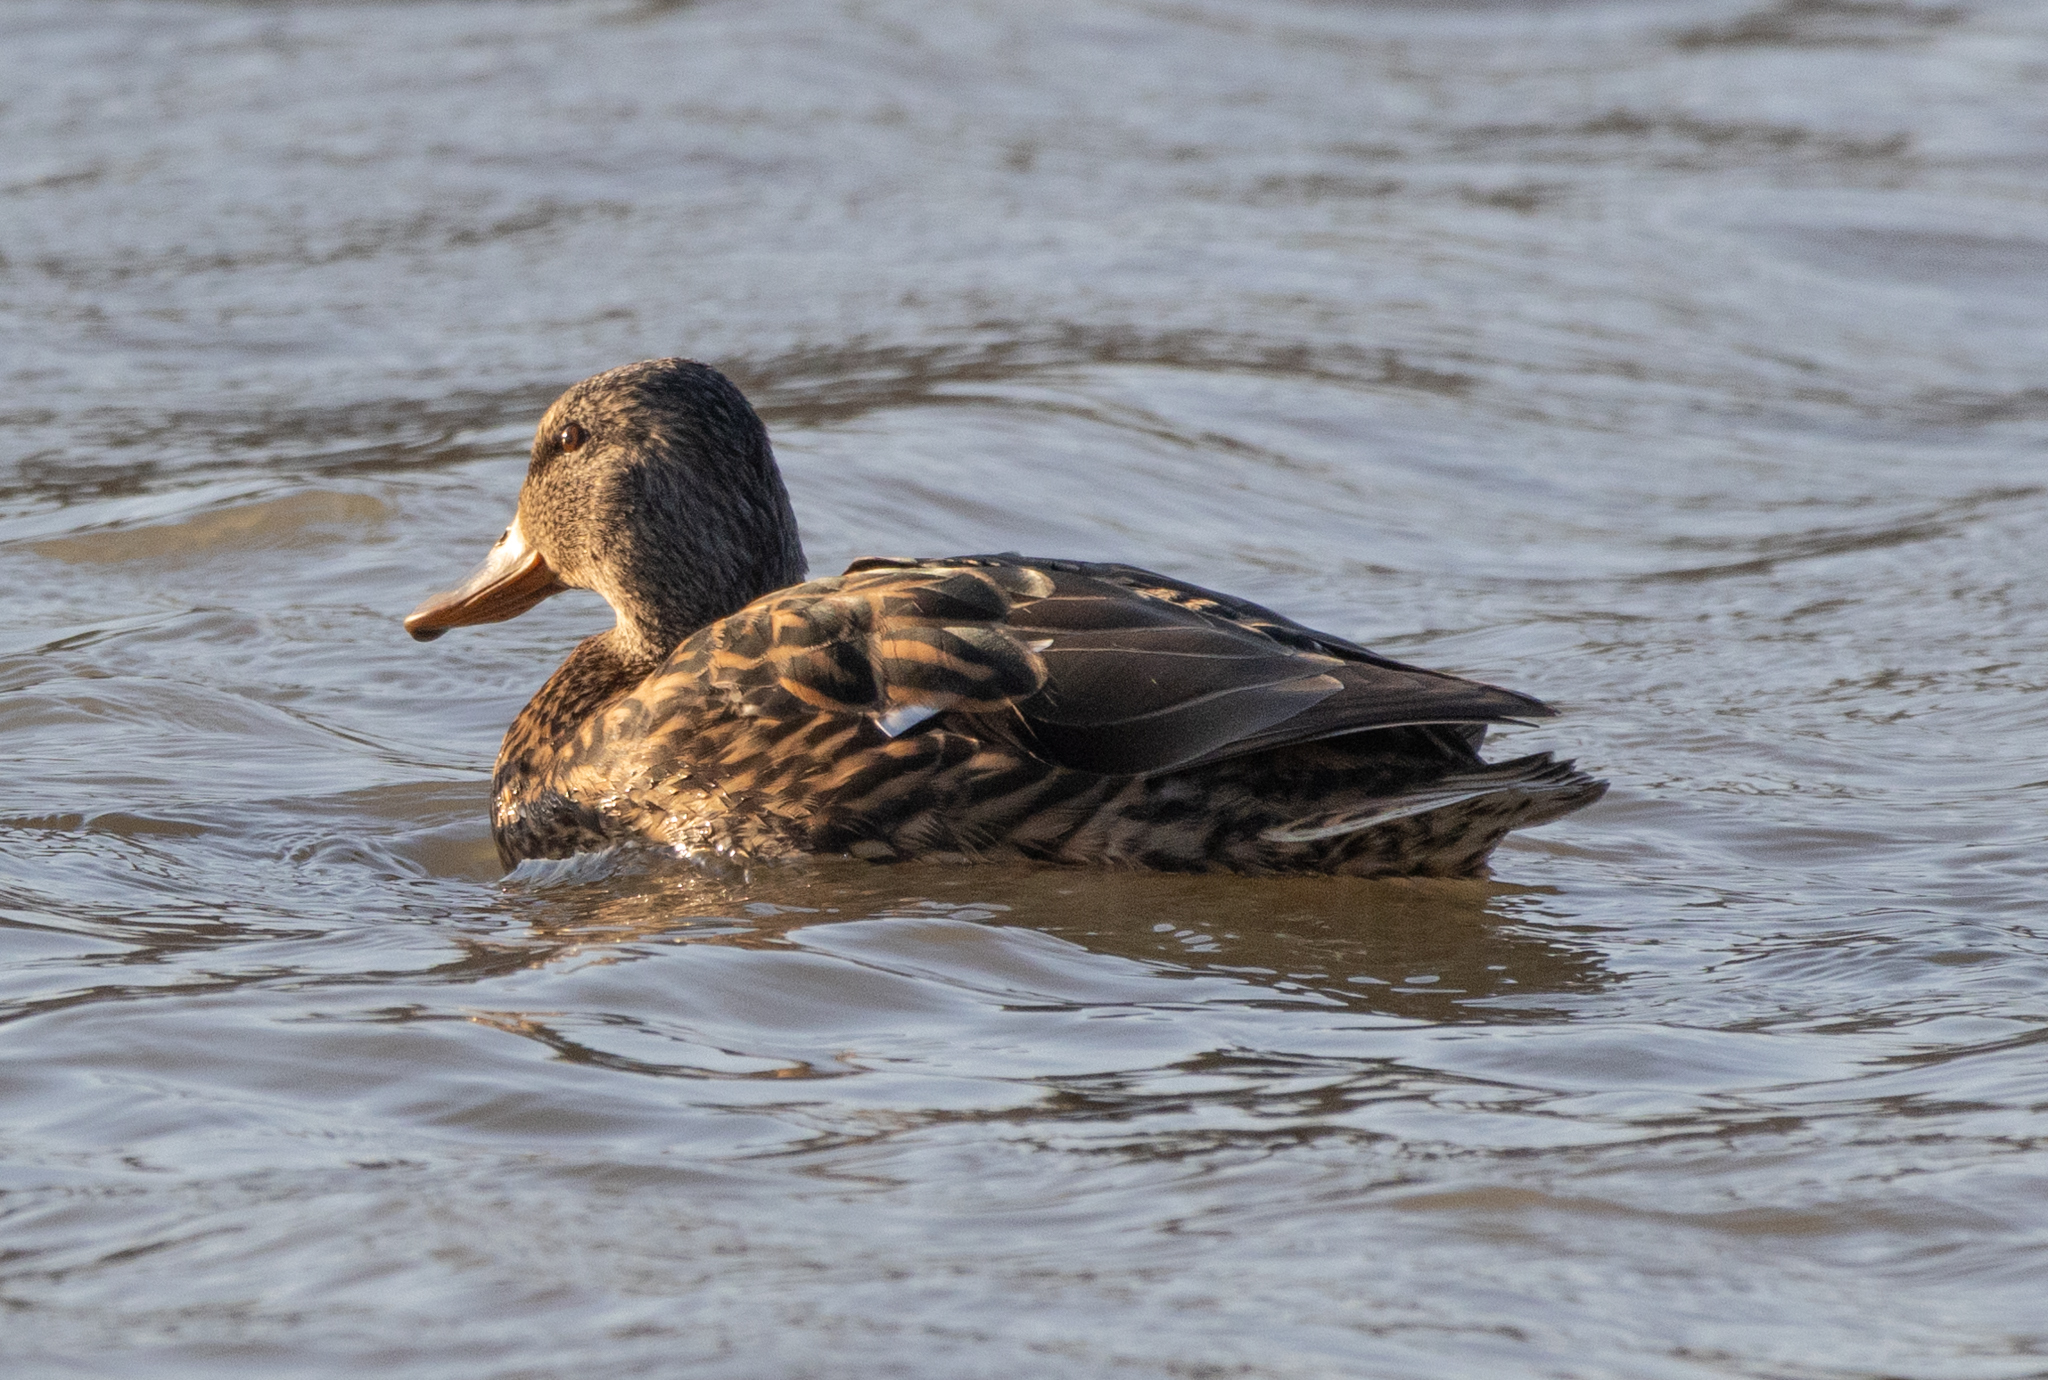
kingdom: Animalia
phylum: Chordata
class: Aves
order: Anseriformes
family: Anatidae
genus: Anas
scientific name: Anas platyrhynchos
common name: Mallard
